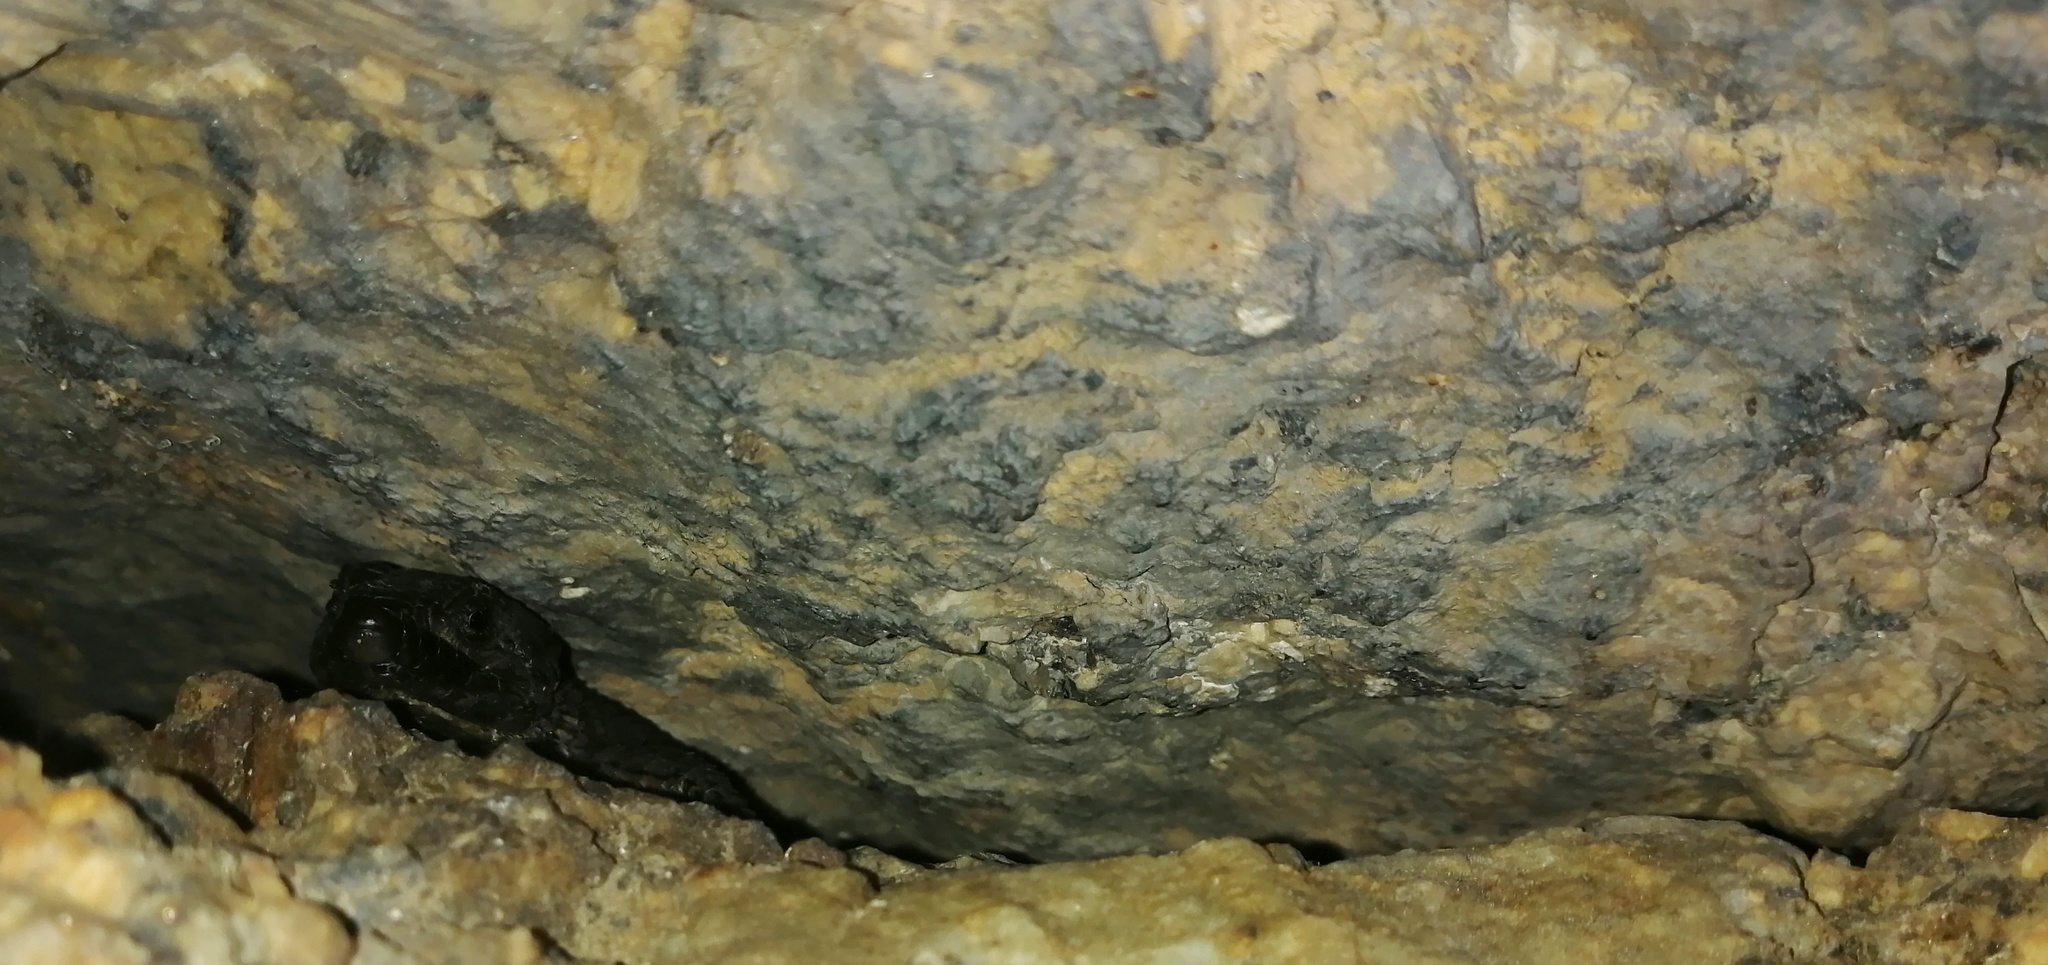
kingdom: Animalia
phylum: Chordata
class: Squamata
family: Cordylidae
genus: Cordylus
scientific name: Cordylus niger
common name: Black girdled lizard
